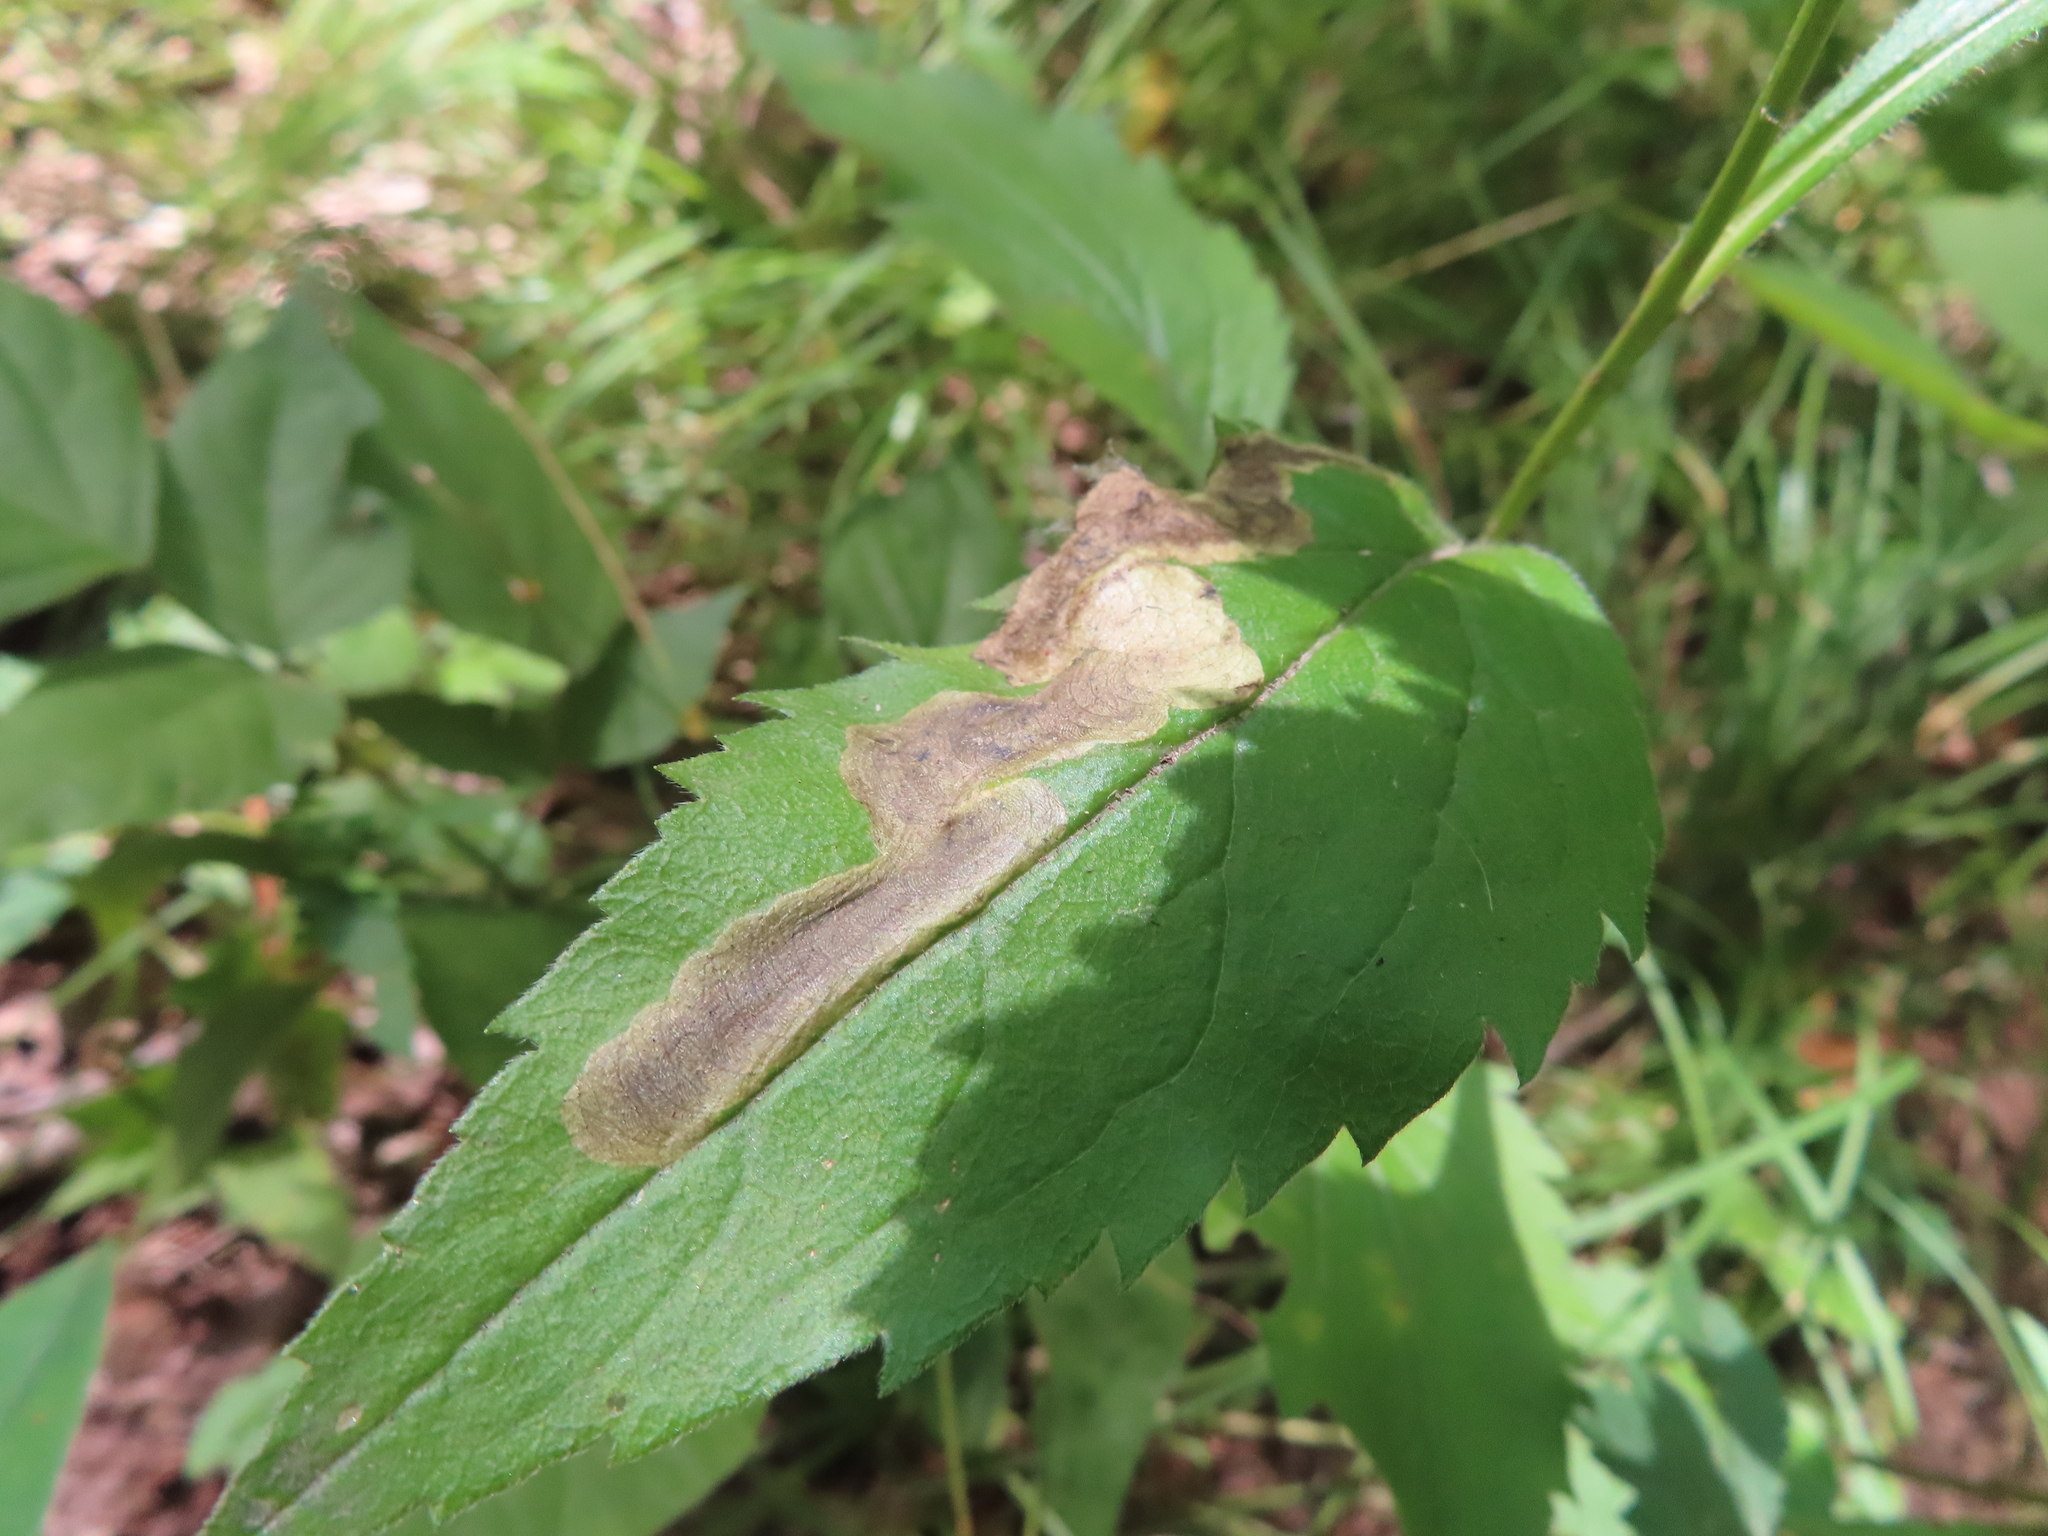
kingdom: Animalia
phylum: Arthropoda
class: Insecta
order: Diptera
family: Agromyzidae
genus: Nemorimyza
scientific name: Nemorimyza posticata
